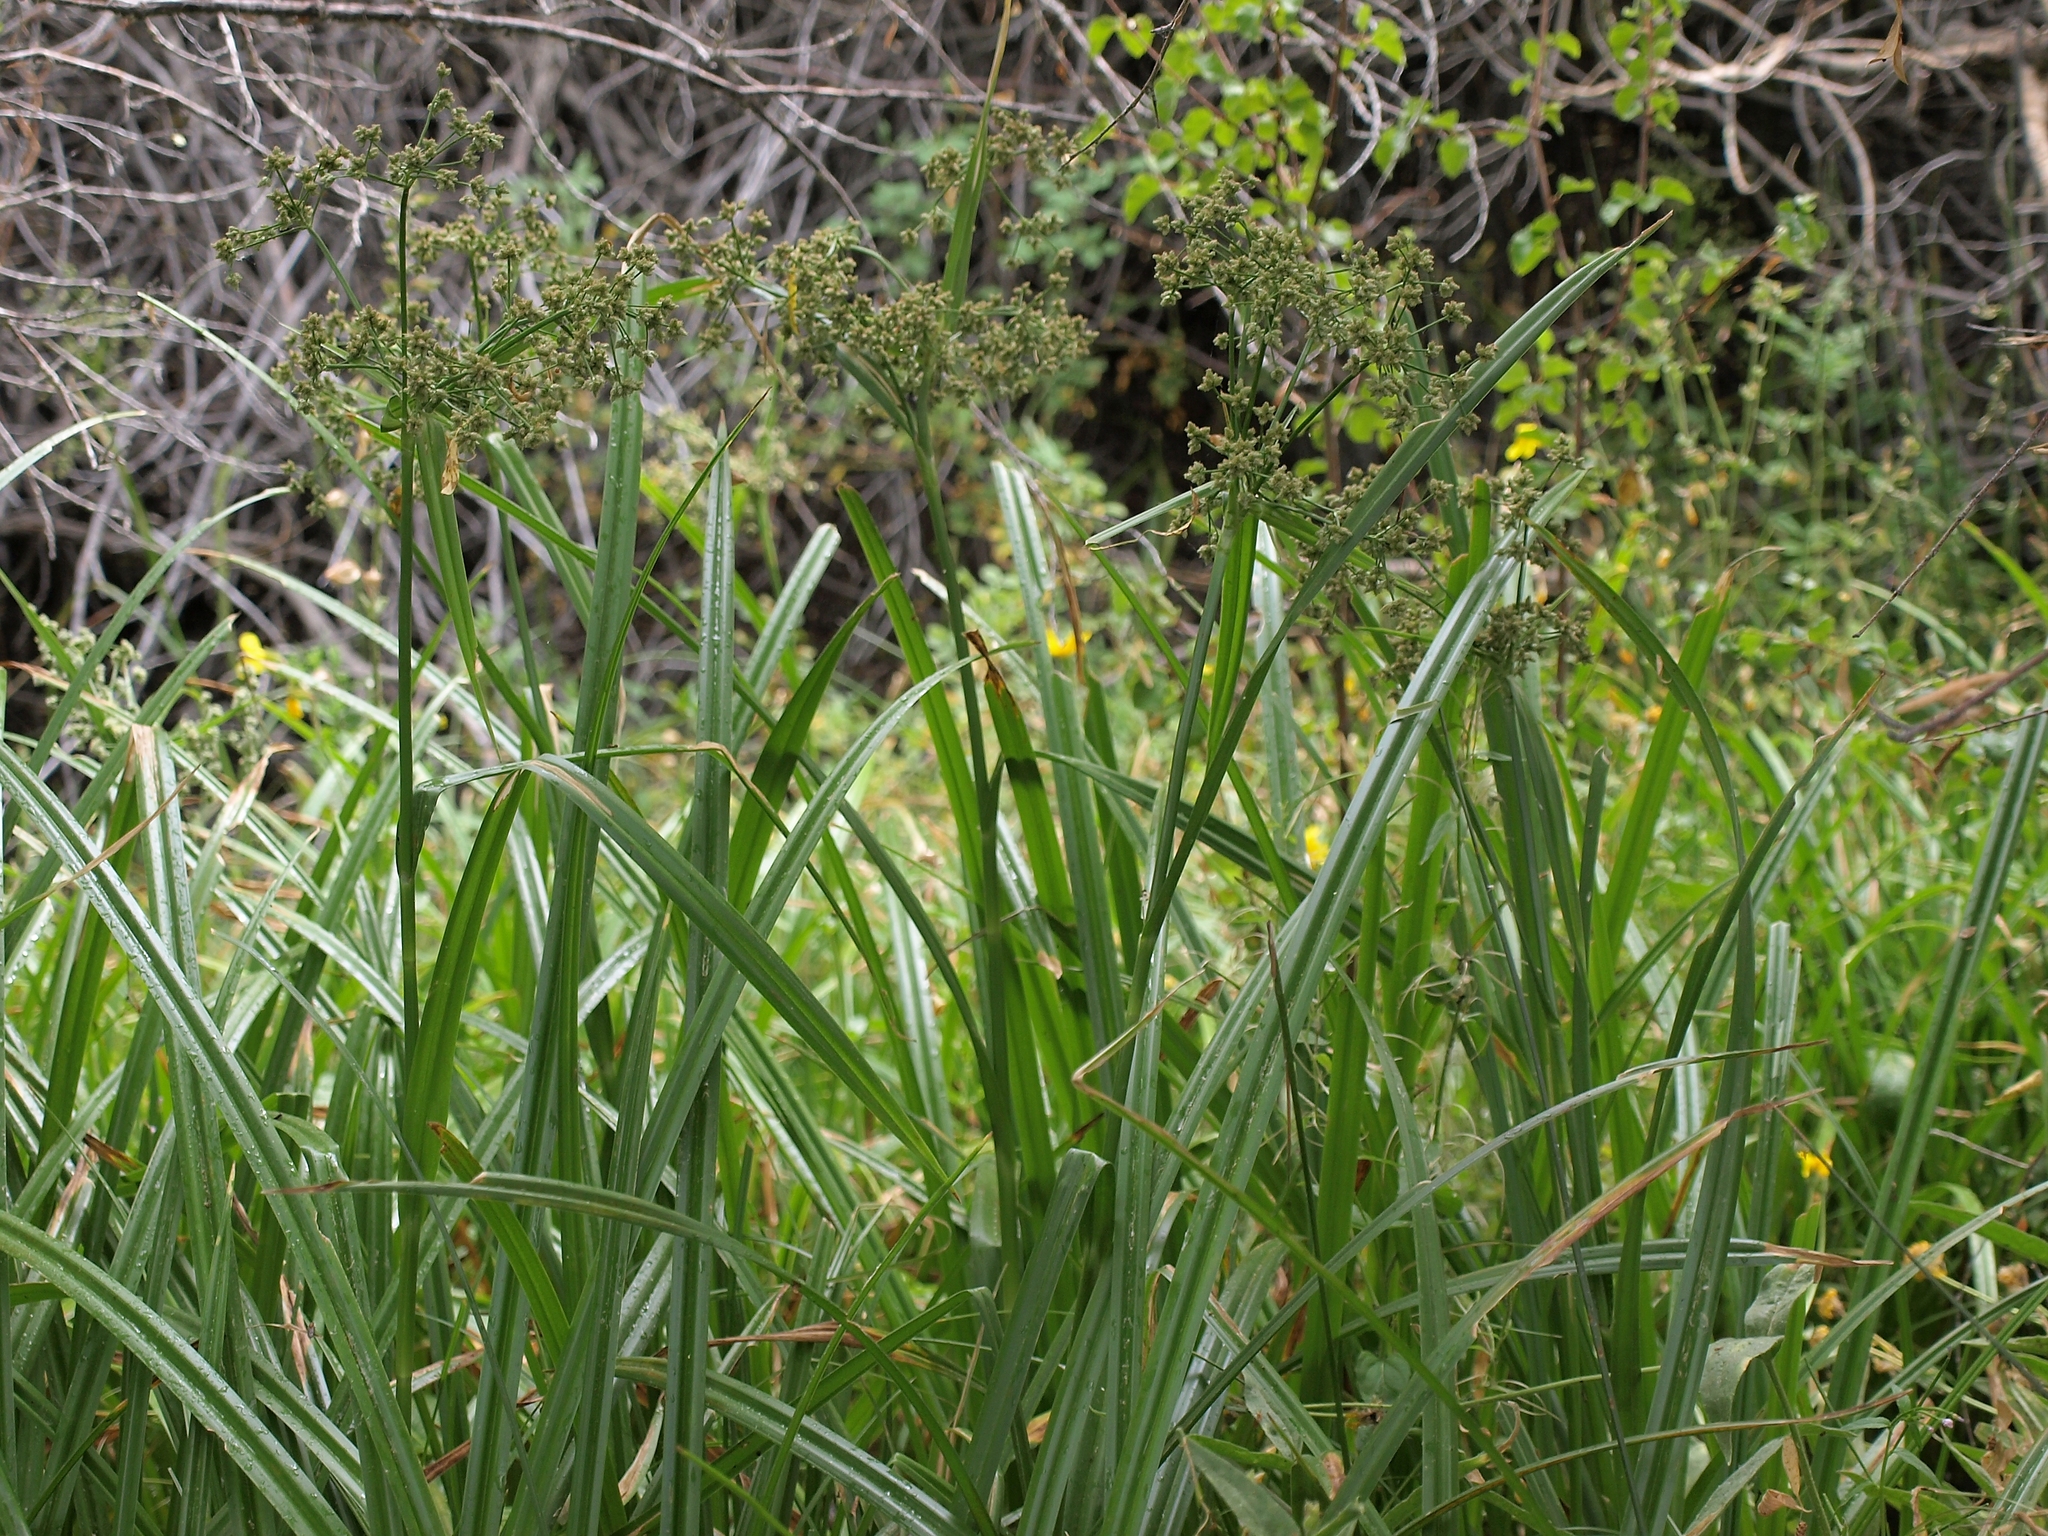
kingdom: Plantae
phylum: Tracheophyta
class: Liliopsida
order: Poales
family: Cyperaceae
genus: Scirpus
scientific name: Scirpus microcarpus
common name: Panicled bulrush
